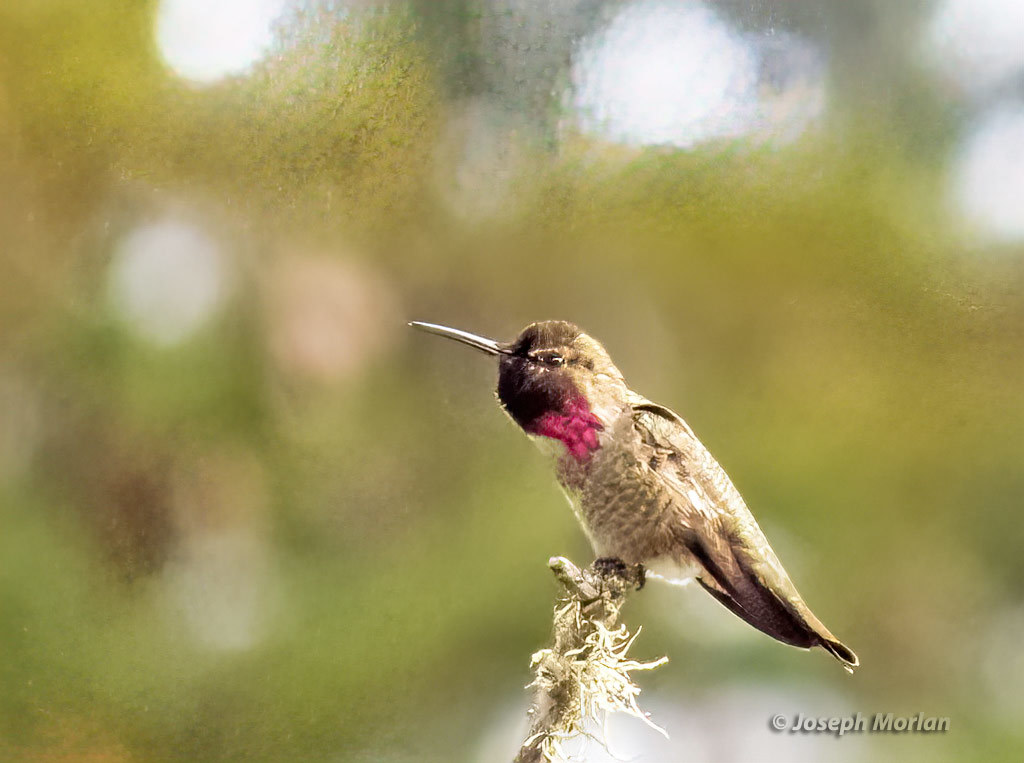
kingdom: Animalia
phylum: Chordata
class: Aves
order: Apodiformes
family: Trochilidae
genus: Calypte
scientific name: Calypte anna
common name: Anna's hummingbird
